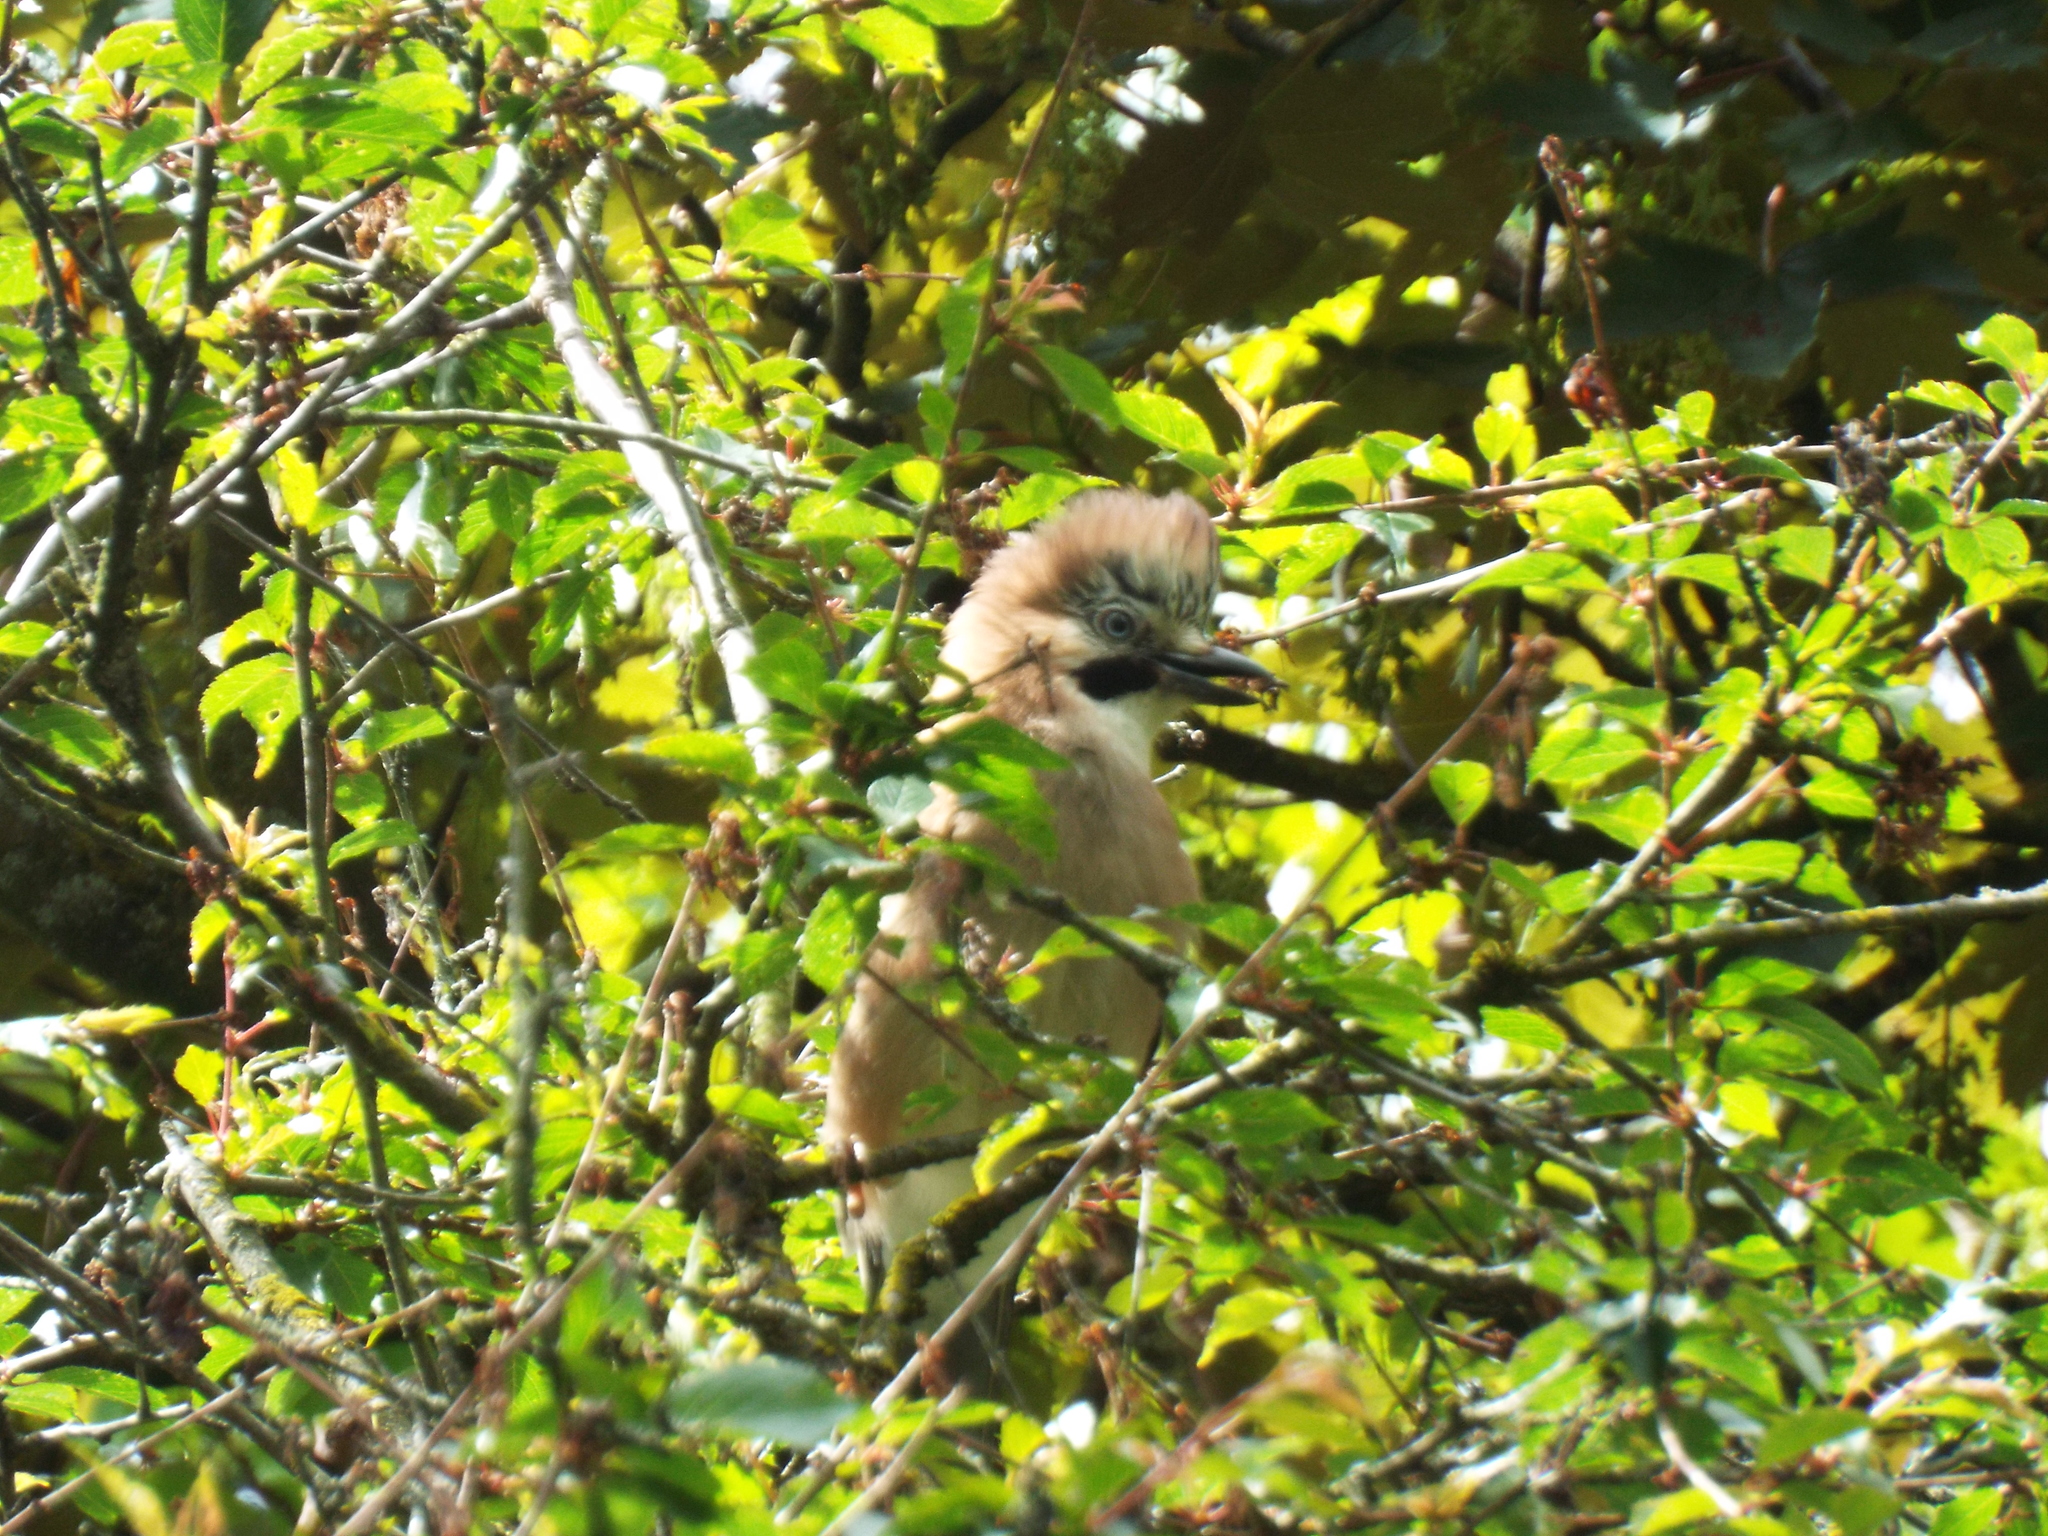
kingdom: Animalia
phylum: Chordata
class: Aves
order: Passeriformes
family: Corvidae
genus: Garrulus
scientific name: Garrulus glandarius
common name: Eurasian jay
